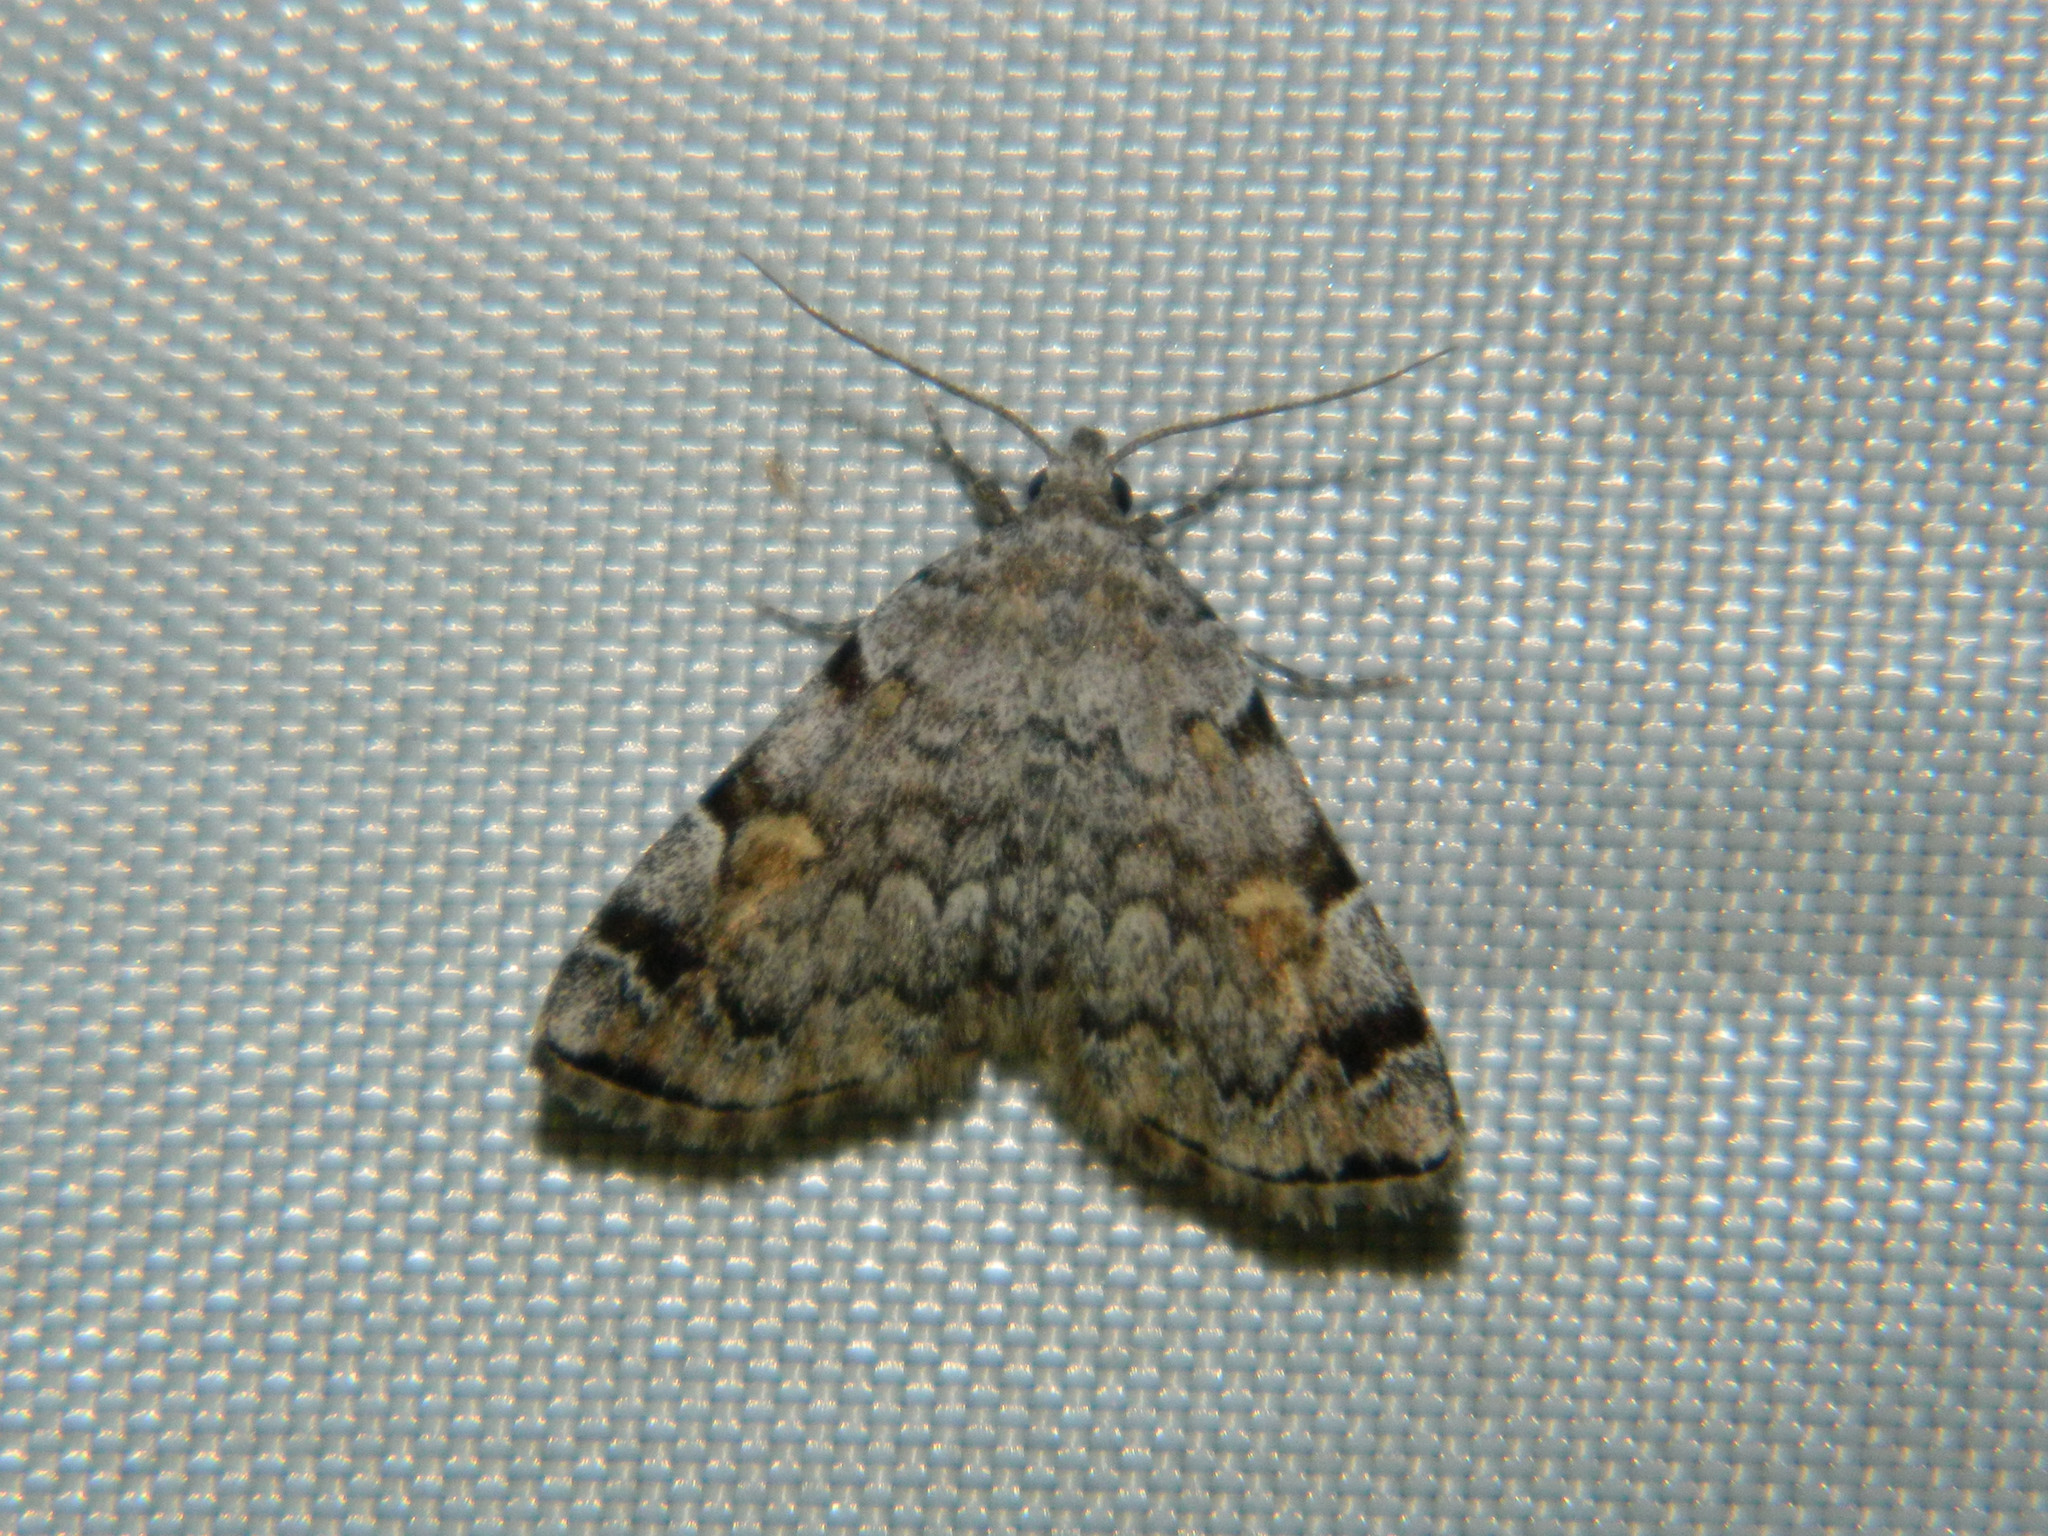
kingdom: Animalia
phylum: Arthropoda
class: Insecta
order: Lepidoptera
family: Erebidae
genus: Idia
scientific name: Idia americalis
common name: American idia moth
